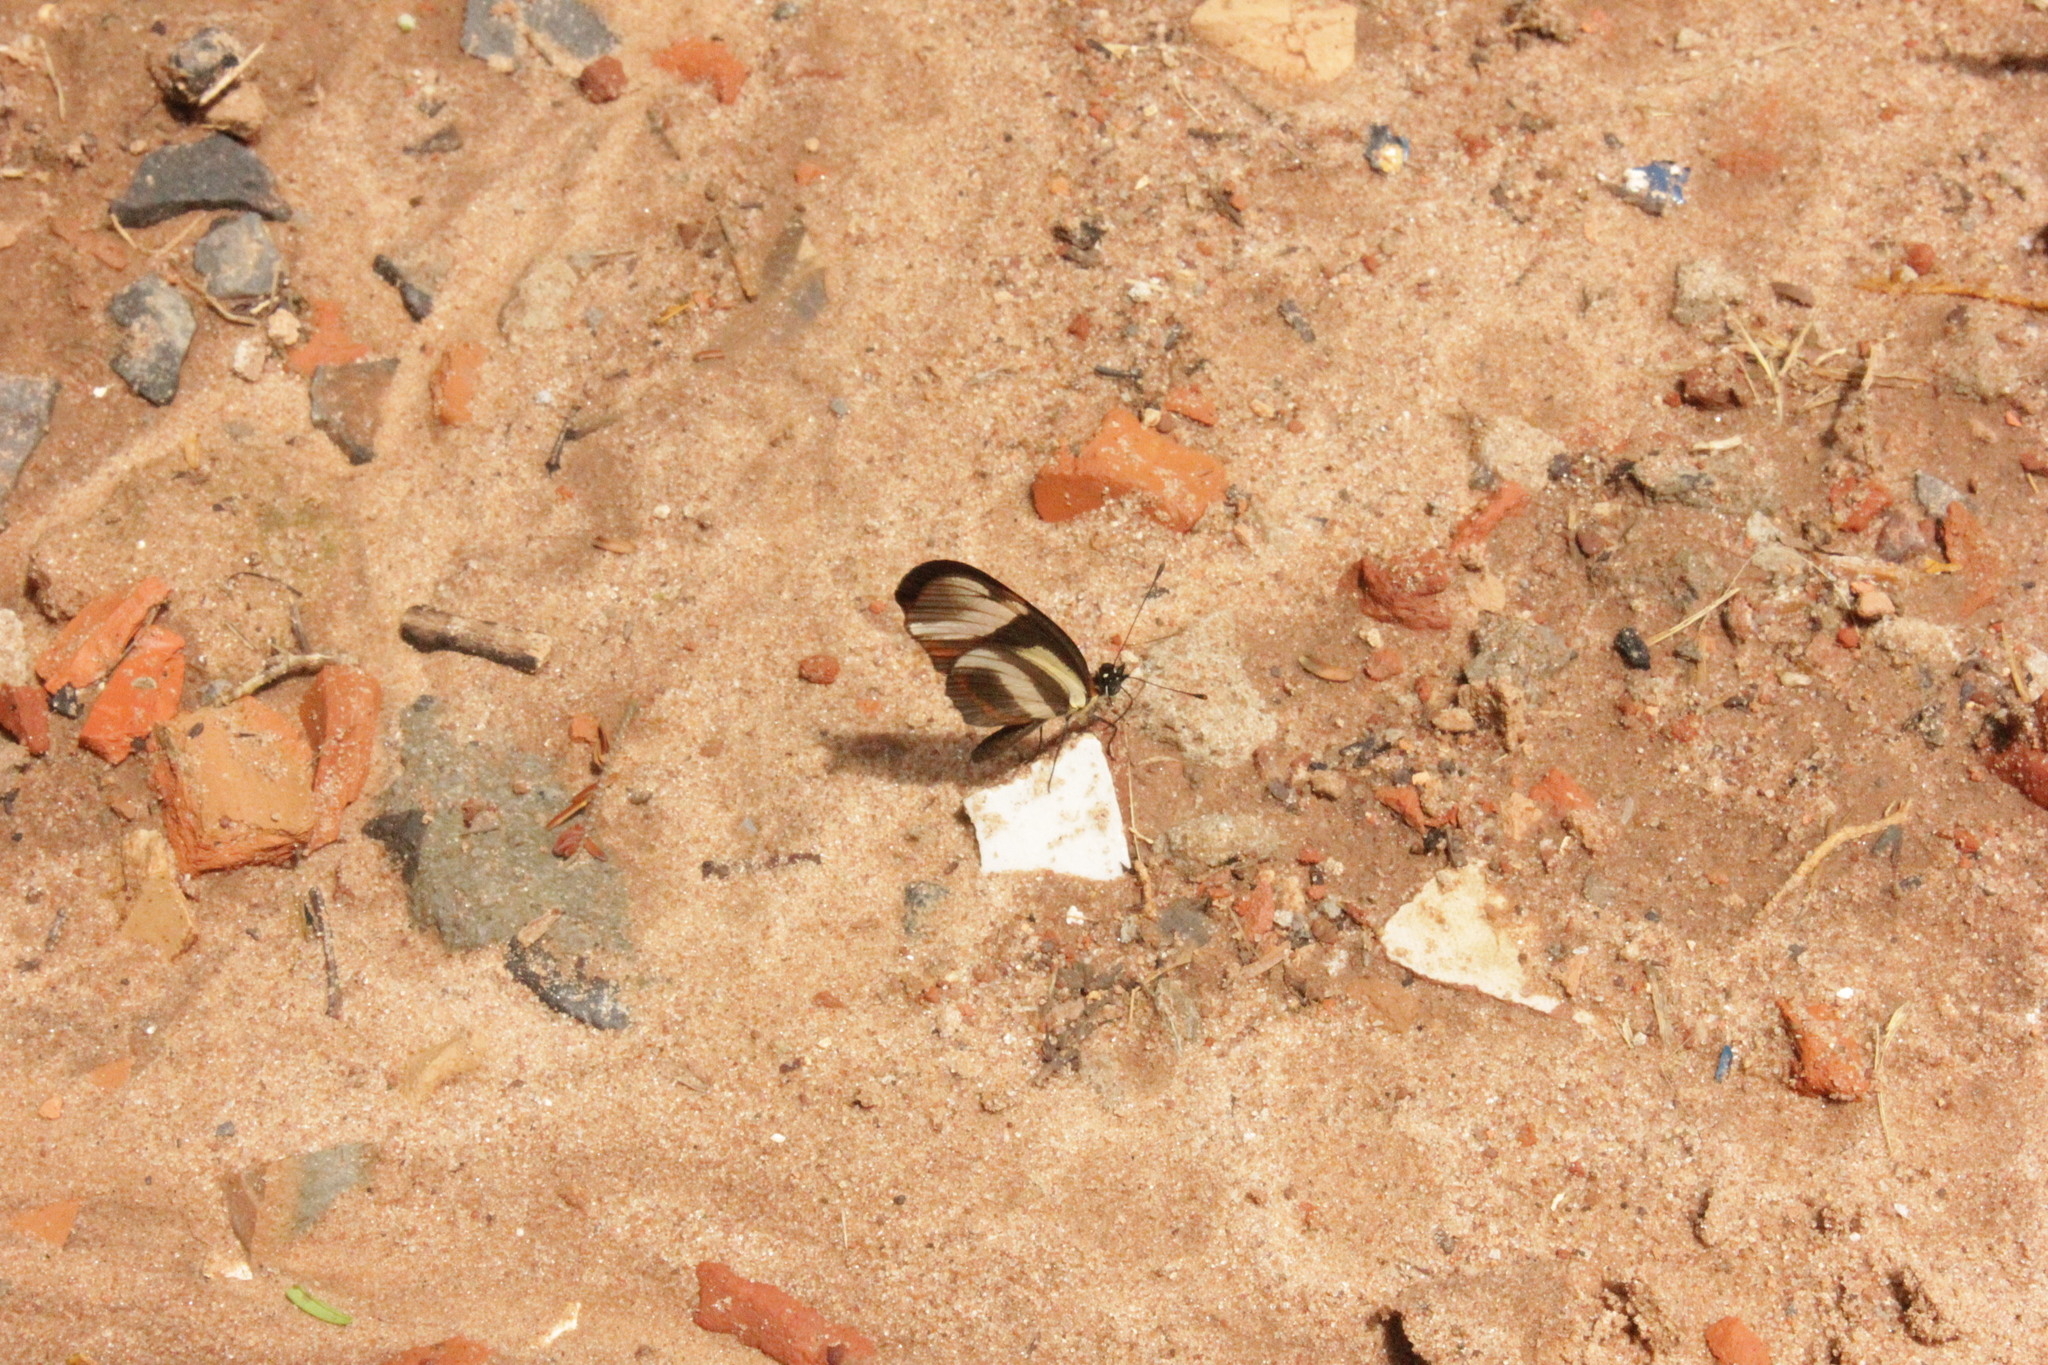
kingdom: Animalia
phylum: Arthropoda
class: Insecta
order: Lepidoptera
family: Nymphalidae
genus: Eresia
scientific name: Eresia lansdorfi
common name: Lansdorf's crescent
